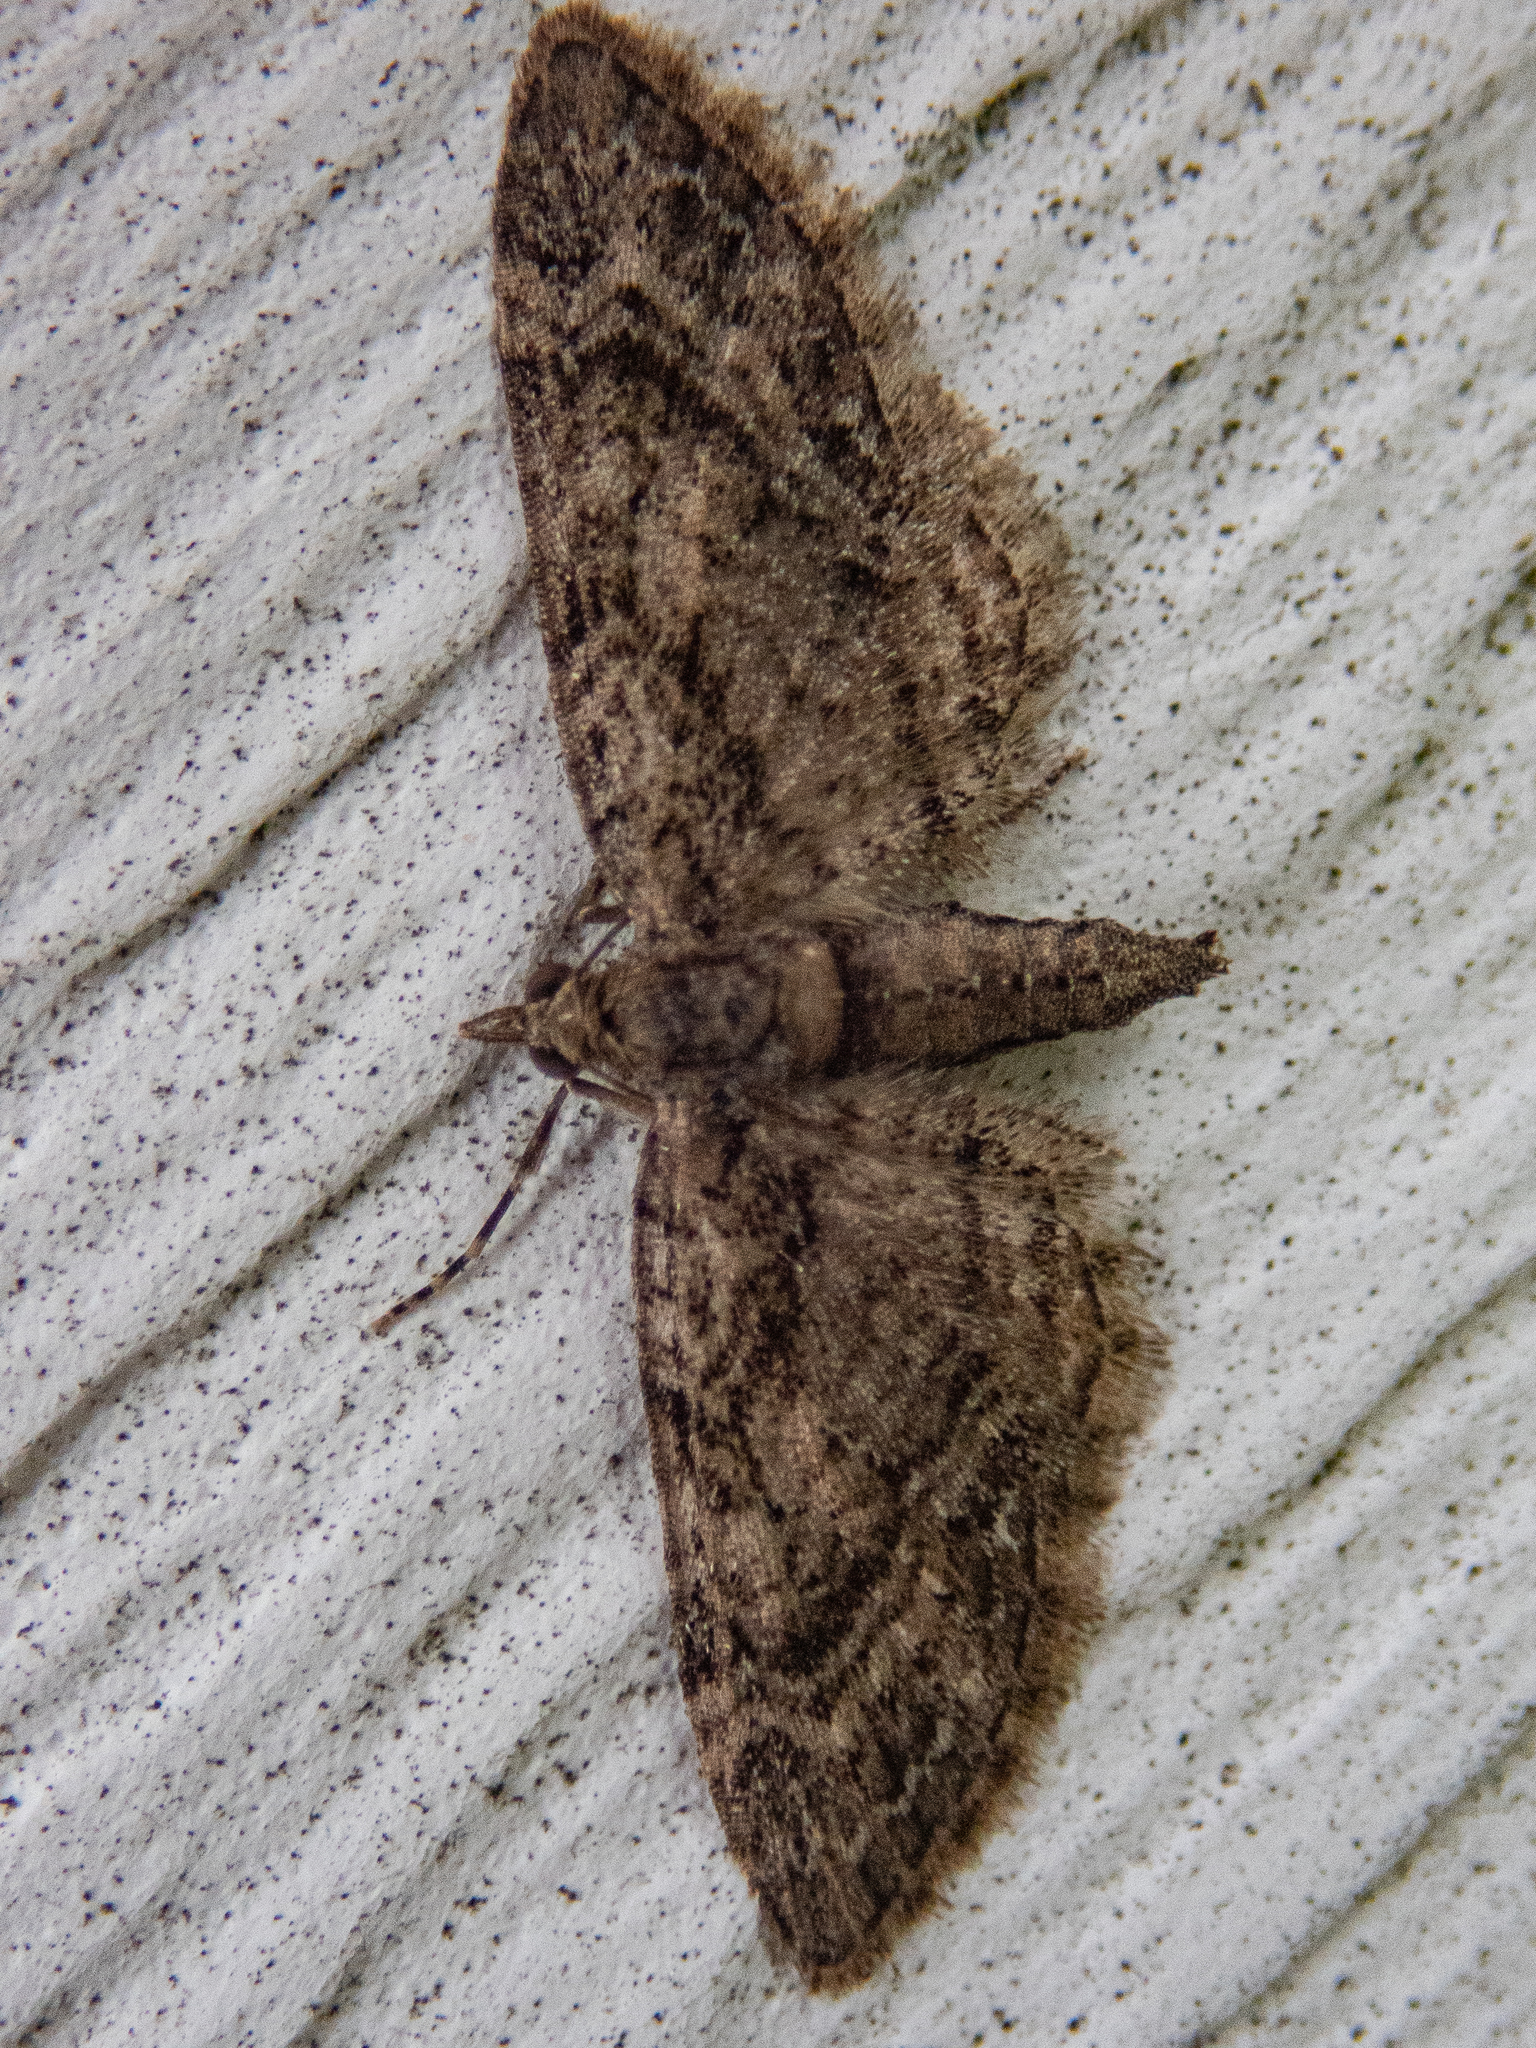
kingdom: Animalia
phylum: Arthropoda
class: Insecta
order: Lepidoptera
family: Geometridae
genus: Eupithecia
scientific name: Eupithecia columbiata
